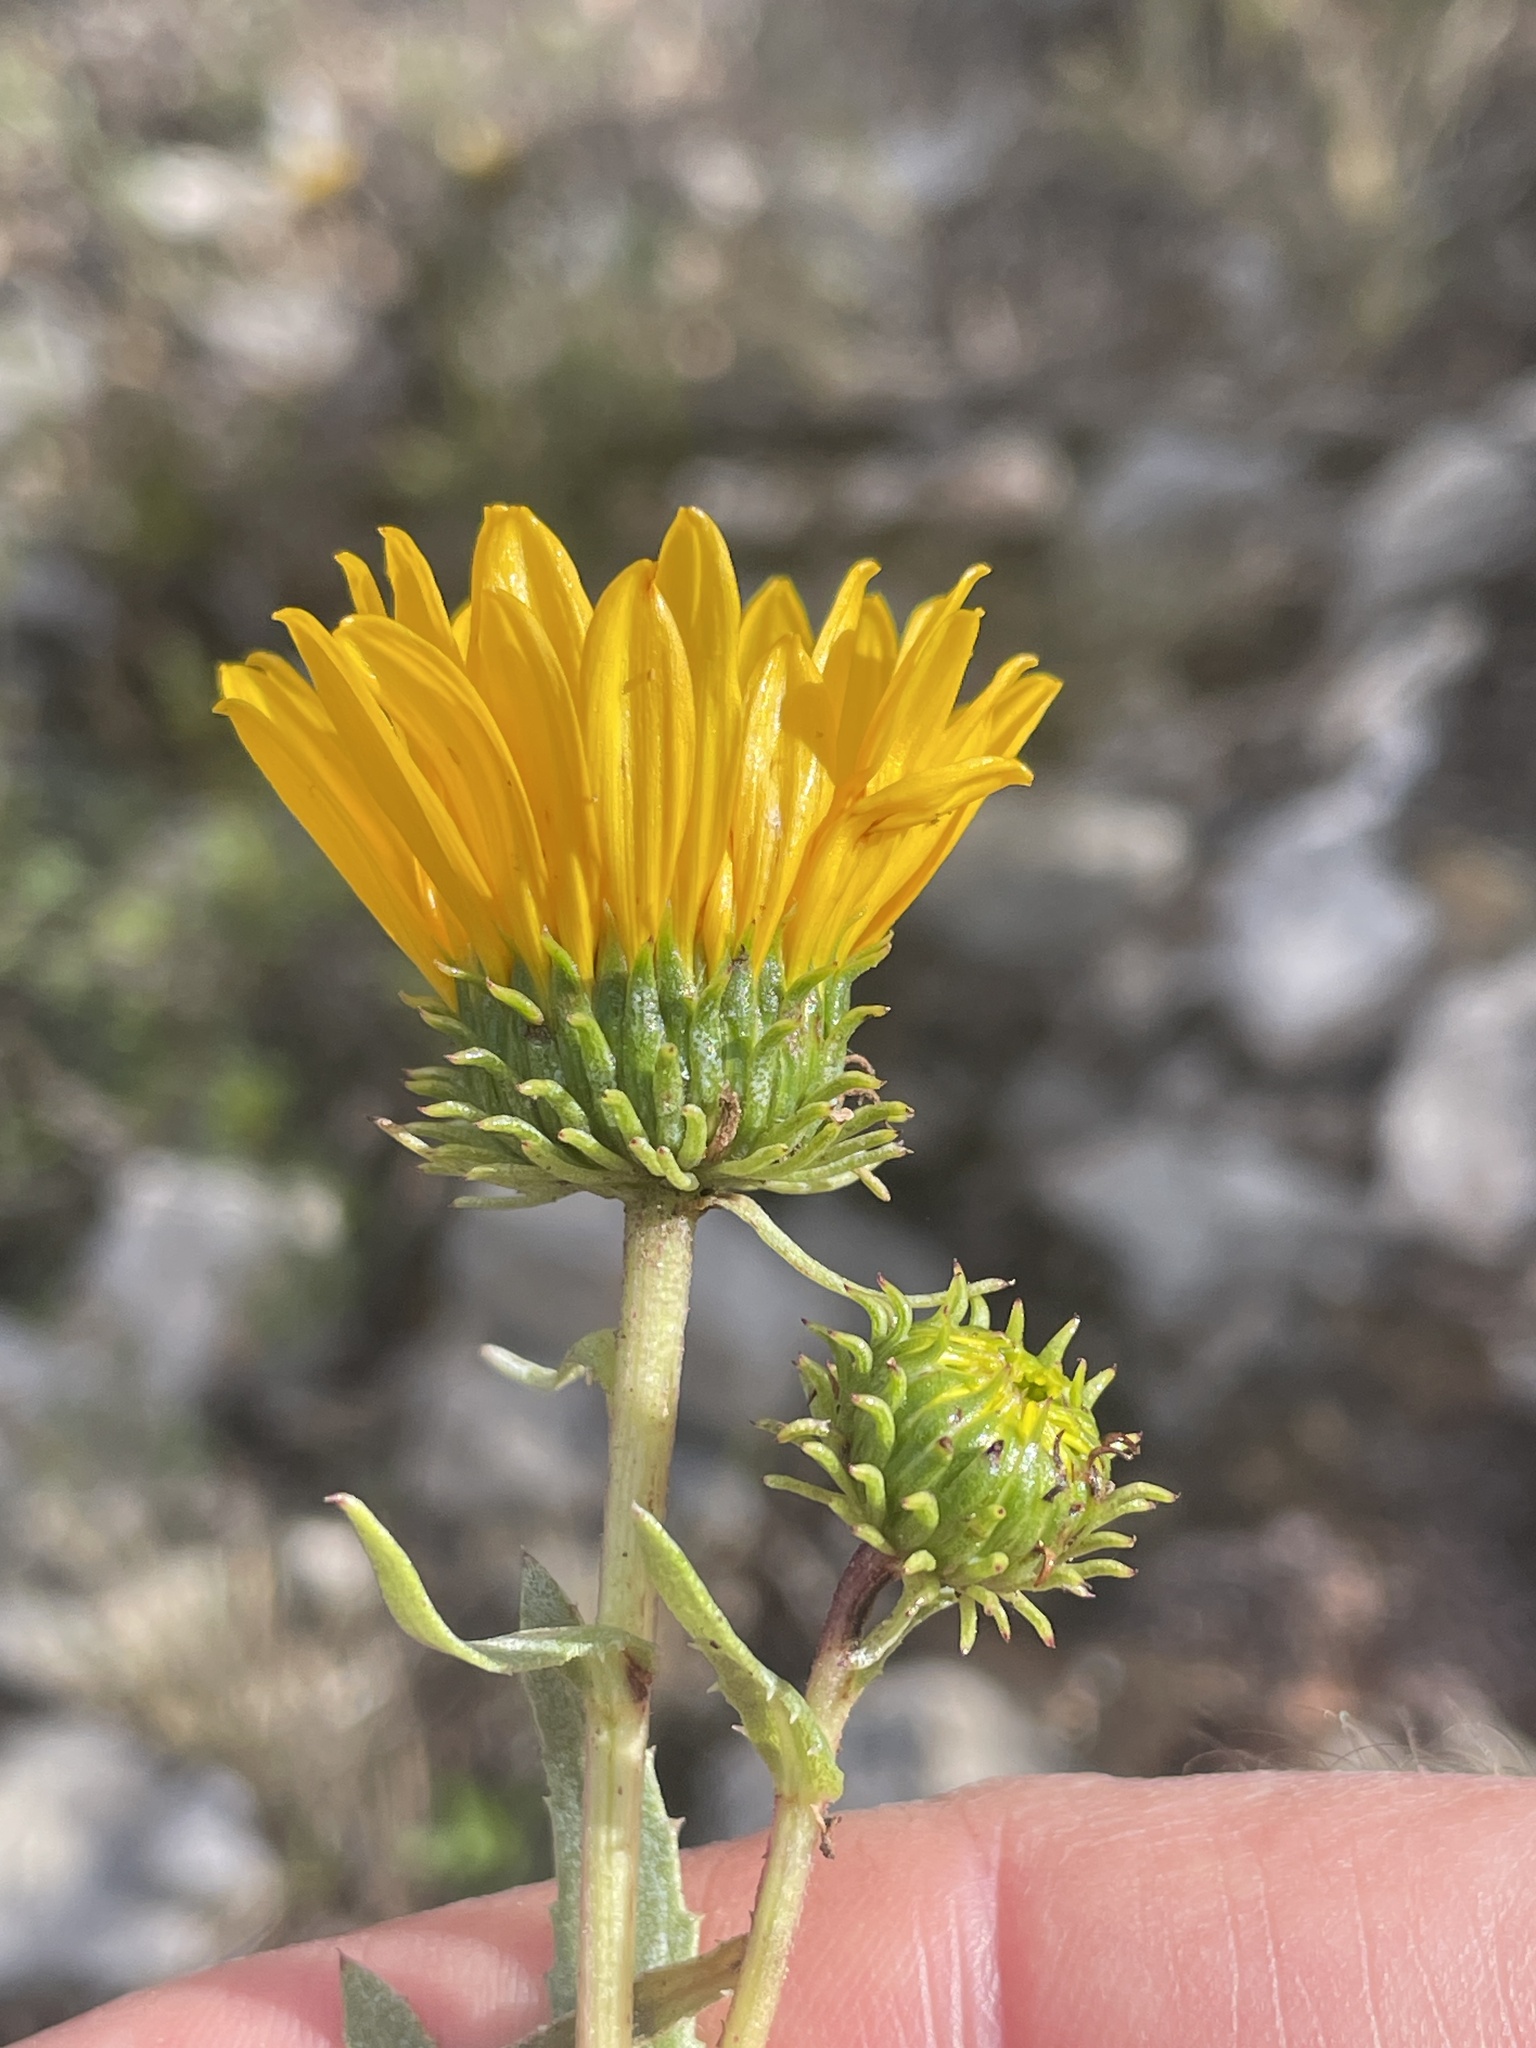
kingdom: Plantae
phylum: Tracheophyta
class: Magnoliopsida
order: Asterales
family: Asteraceae
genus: Grindelia
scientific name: Grindelia boliviana
